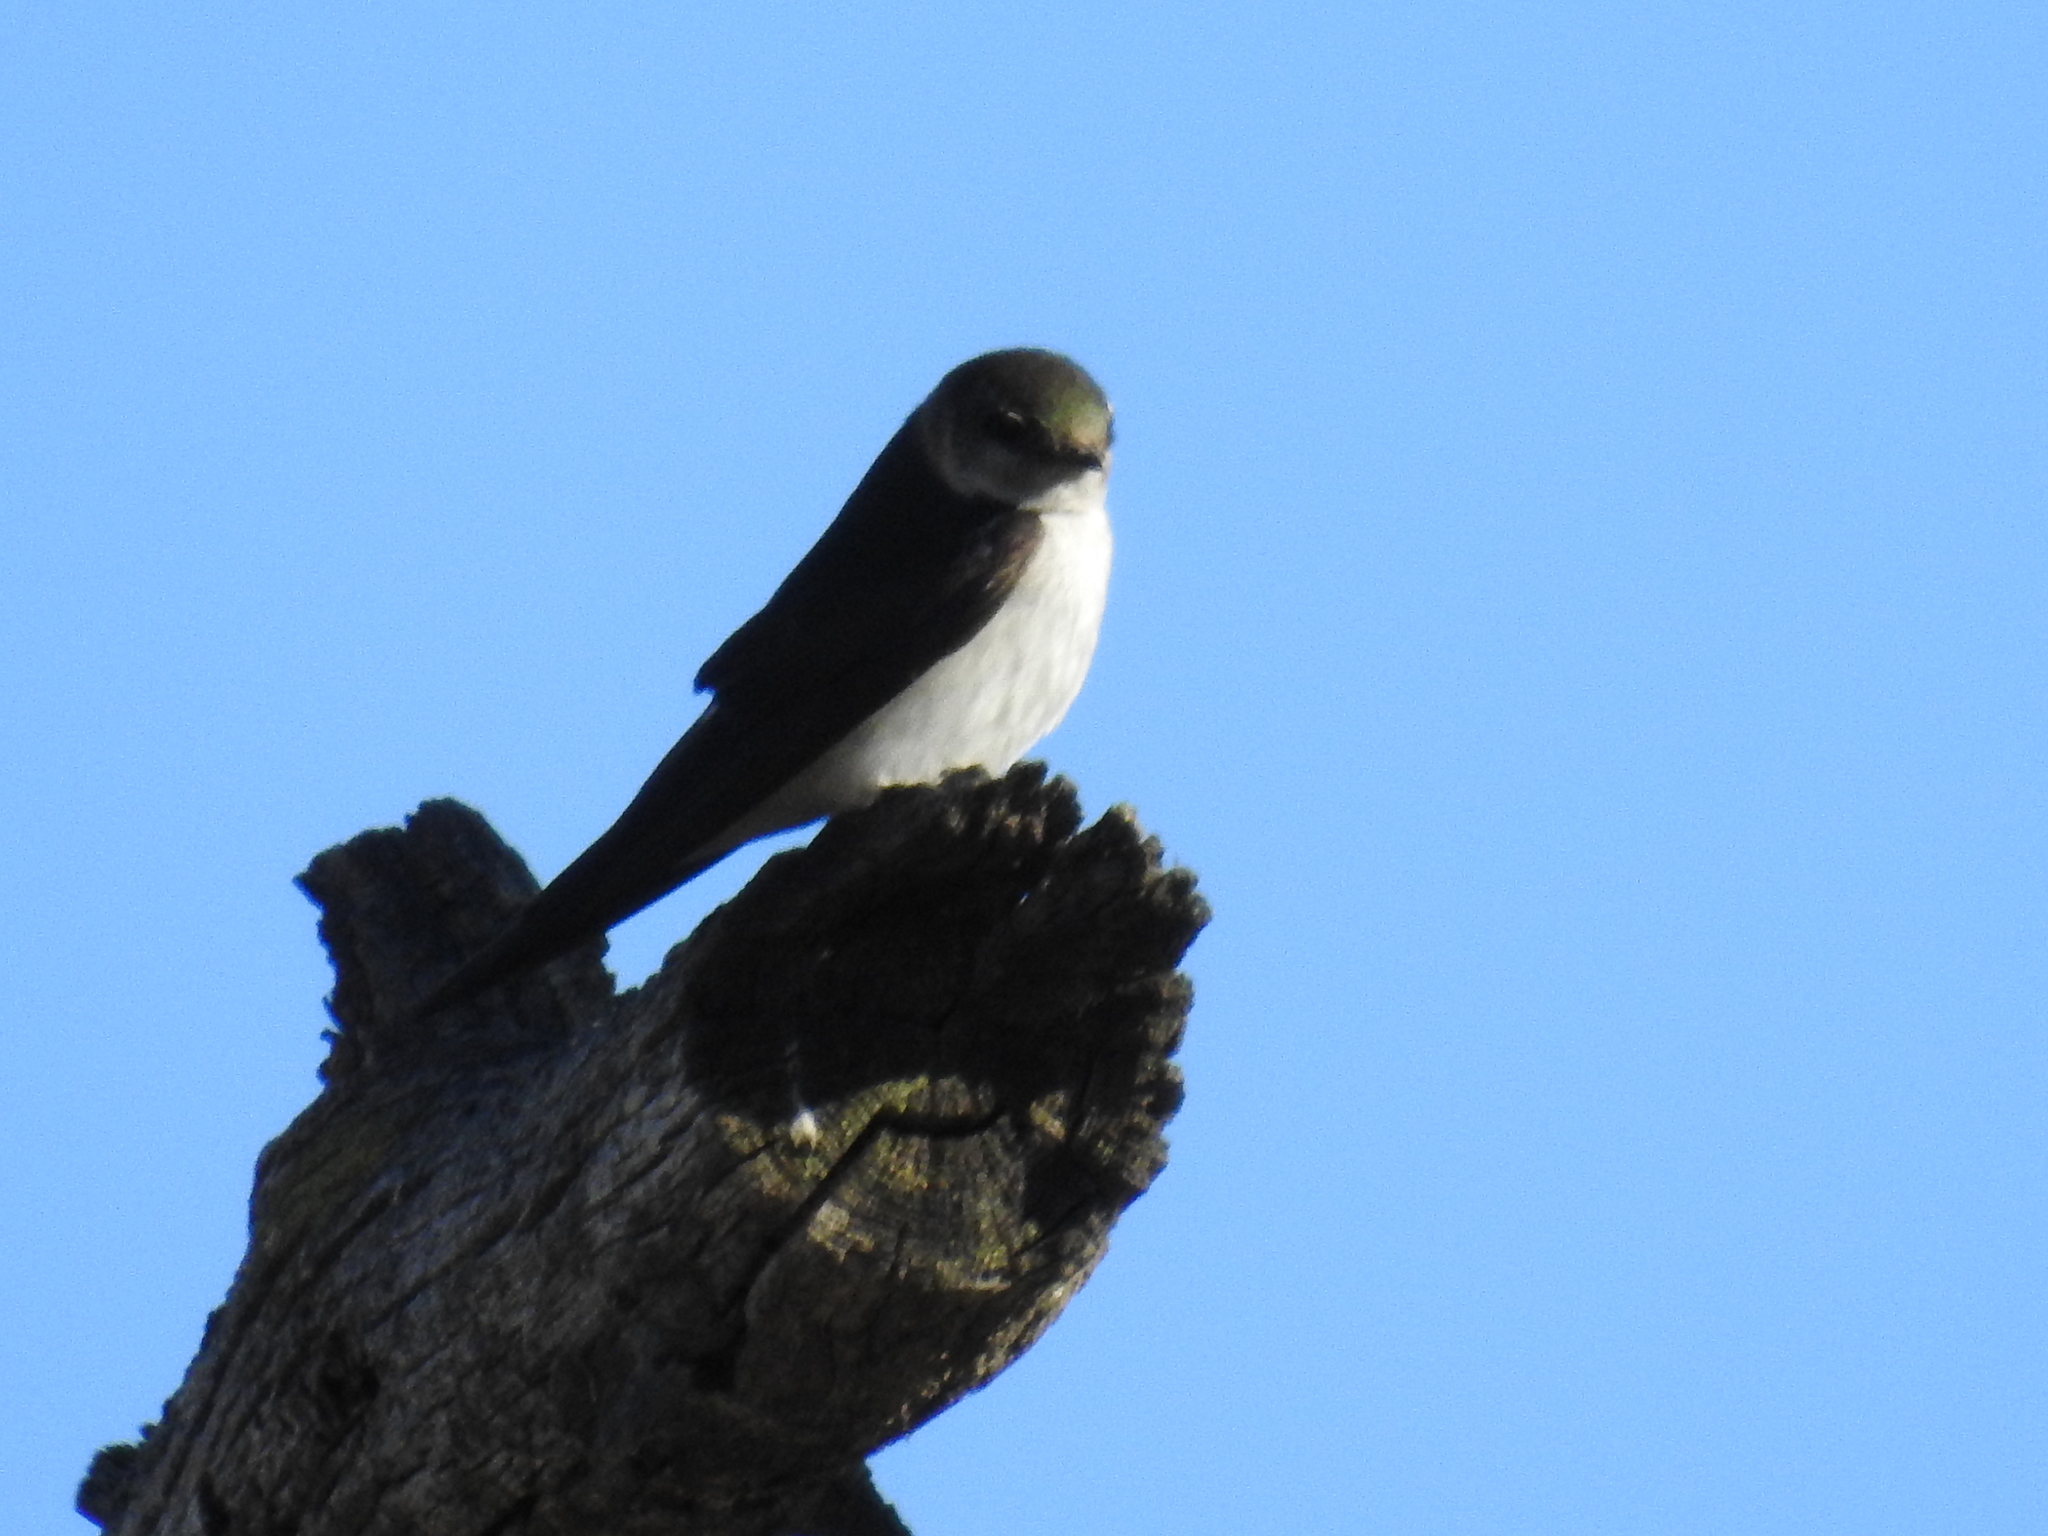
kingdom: Animalia
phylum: Chordata
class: Aves
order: Passeriformes
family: Hirundinidae
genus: Tachycineta
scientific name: Tachycineta thalassina
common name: Violet-green swallow
